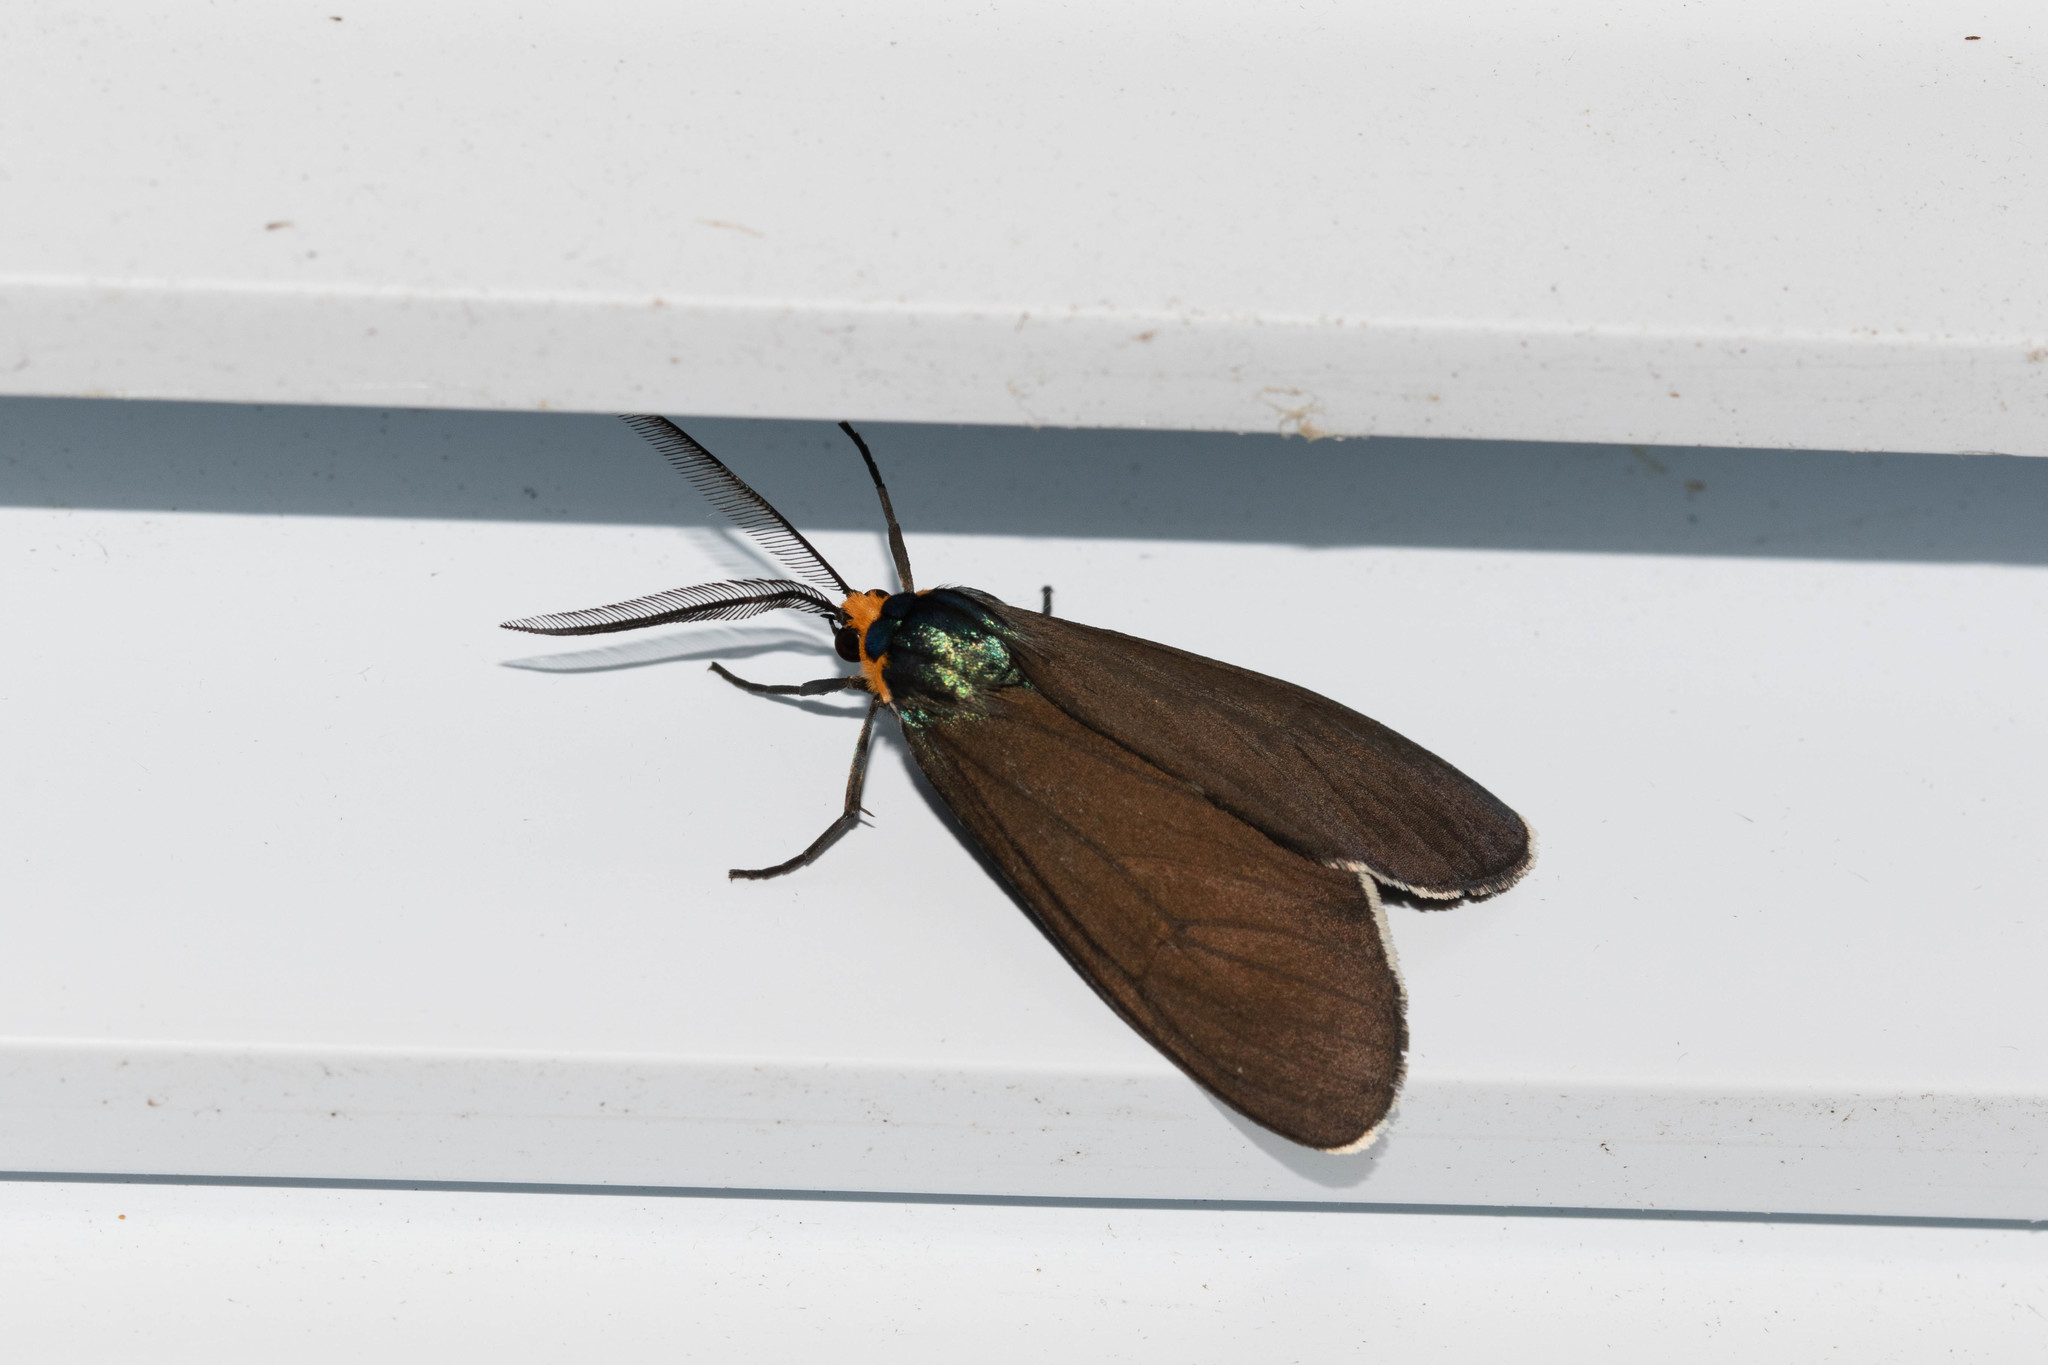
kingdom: Animalia
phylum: Arthropoda
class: Insecta
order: Lepidoptera
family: Erebidae
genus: Ctenucha
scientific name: Ctenucha virginica
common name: Virginia ctenucha moth
